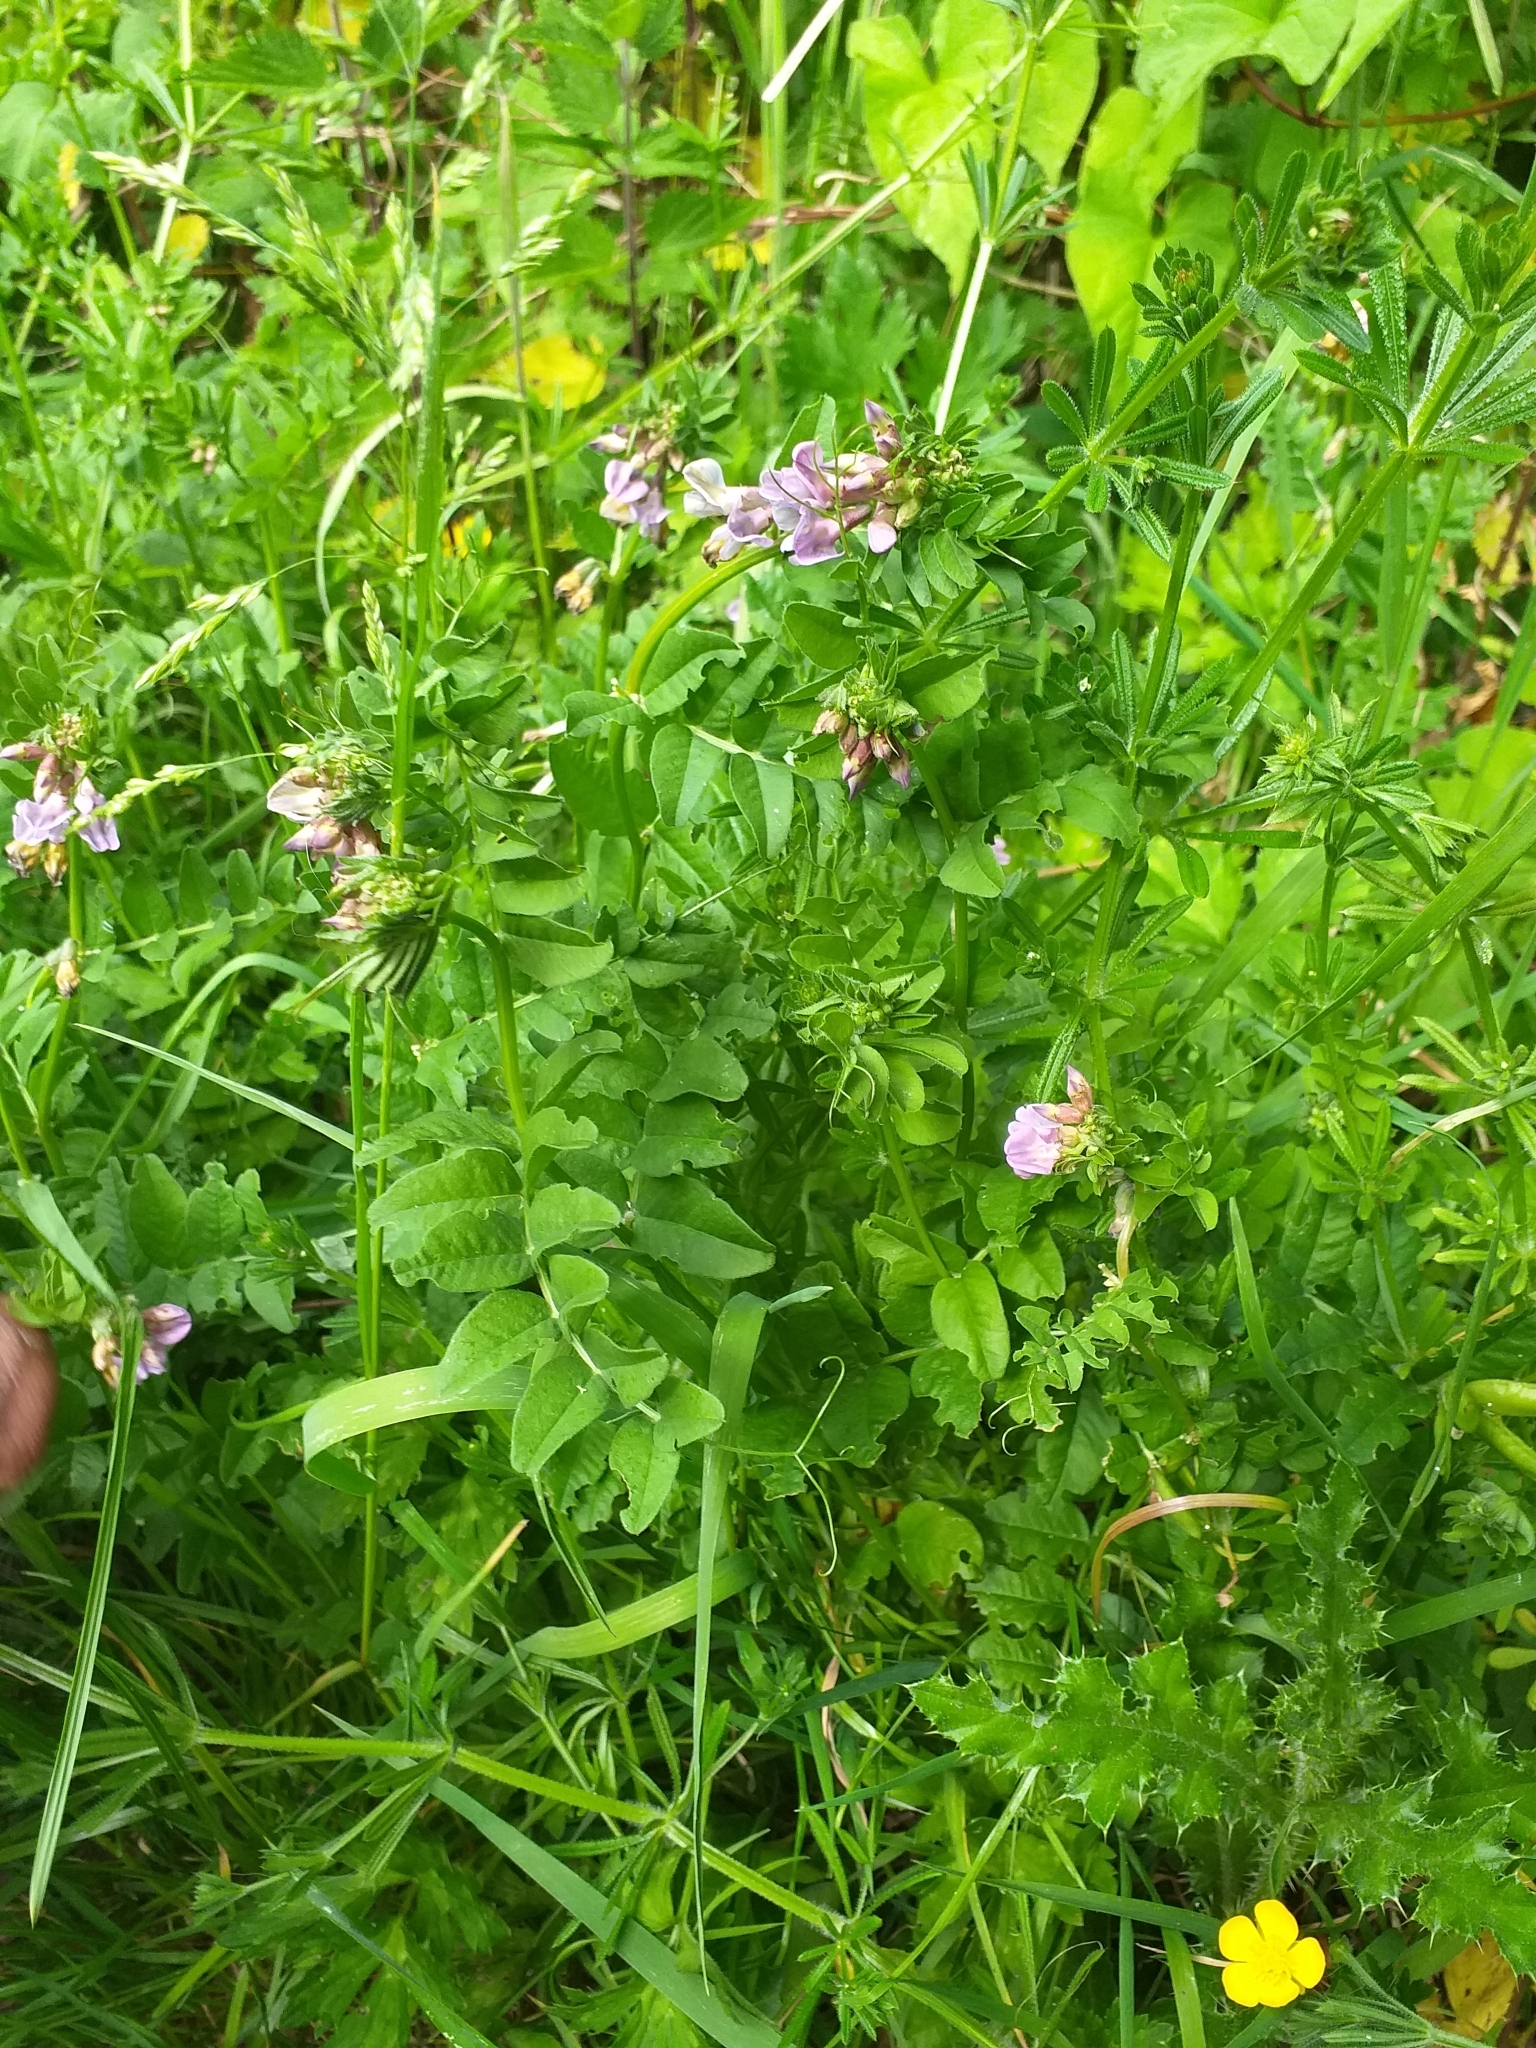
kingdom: Plantae
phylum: Tracheophyta
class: Magnoliopsida
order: Fabales
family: Fabaceae
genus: Vicia
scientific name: Vicia sepium
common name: Bush vetch
